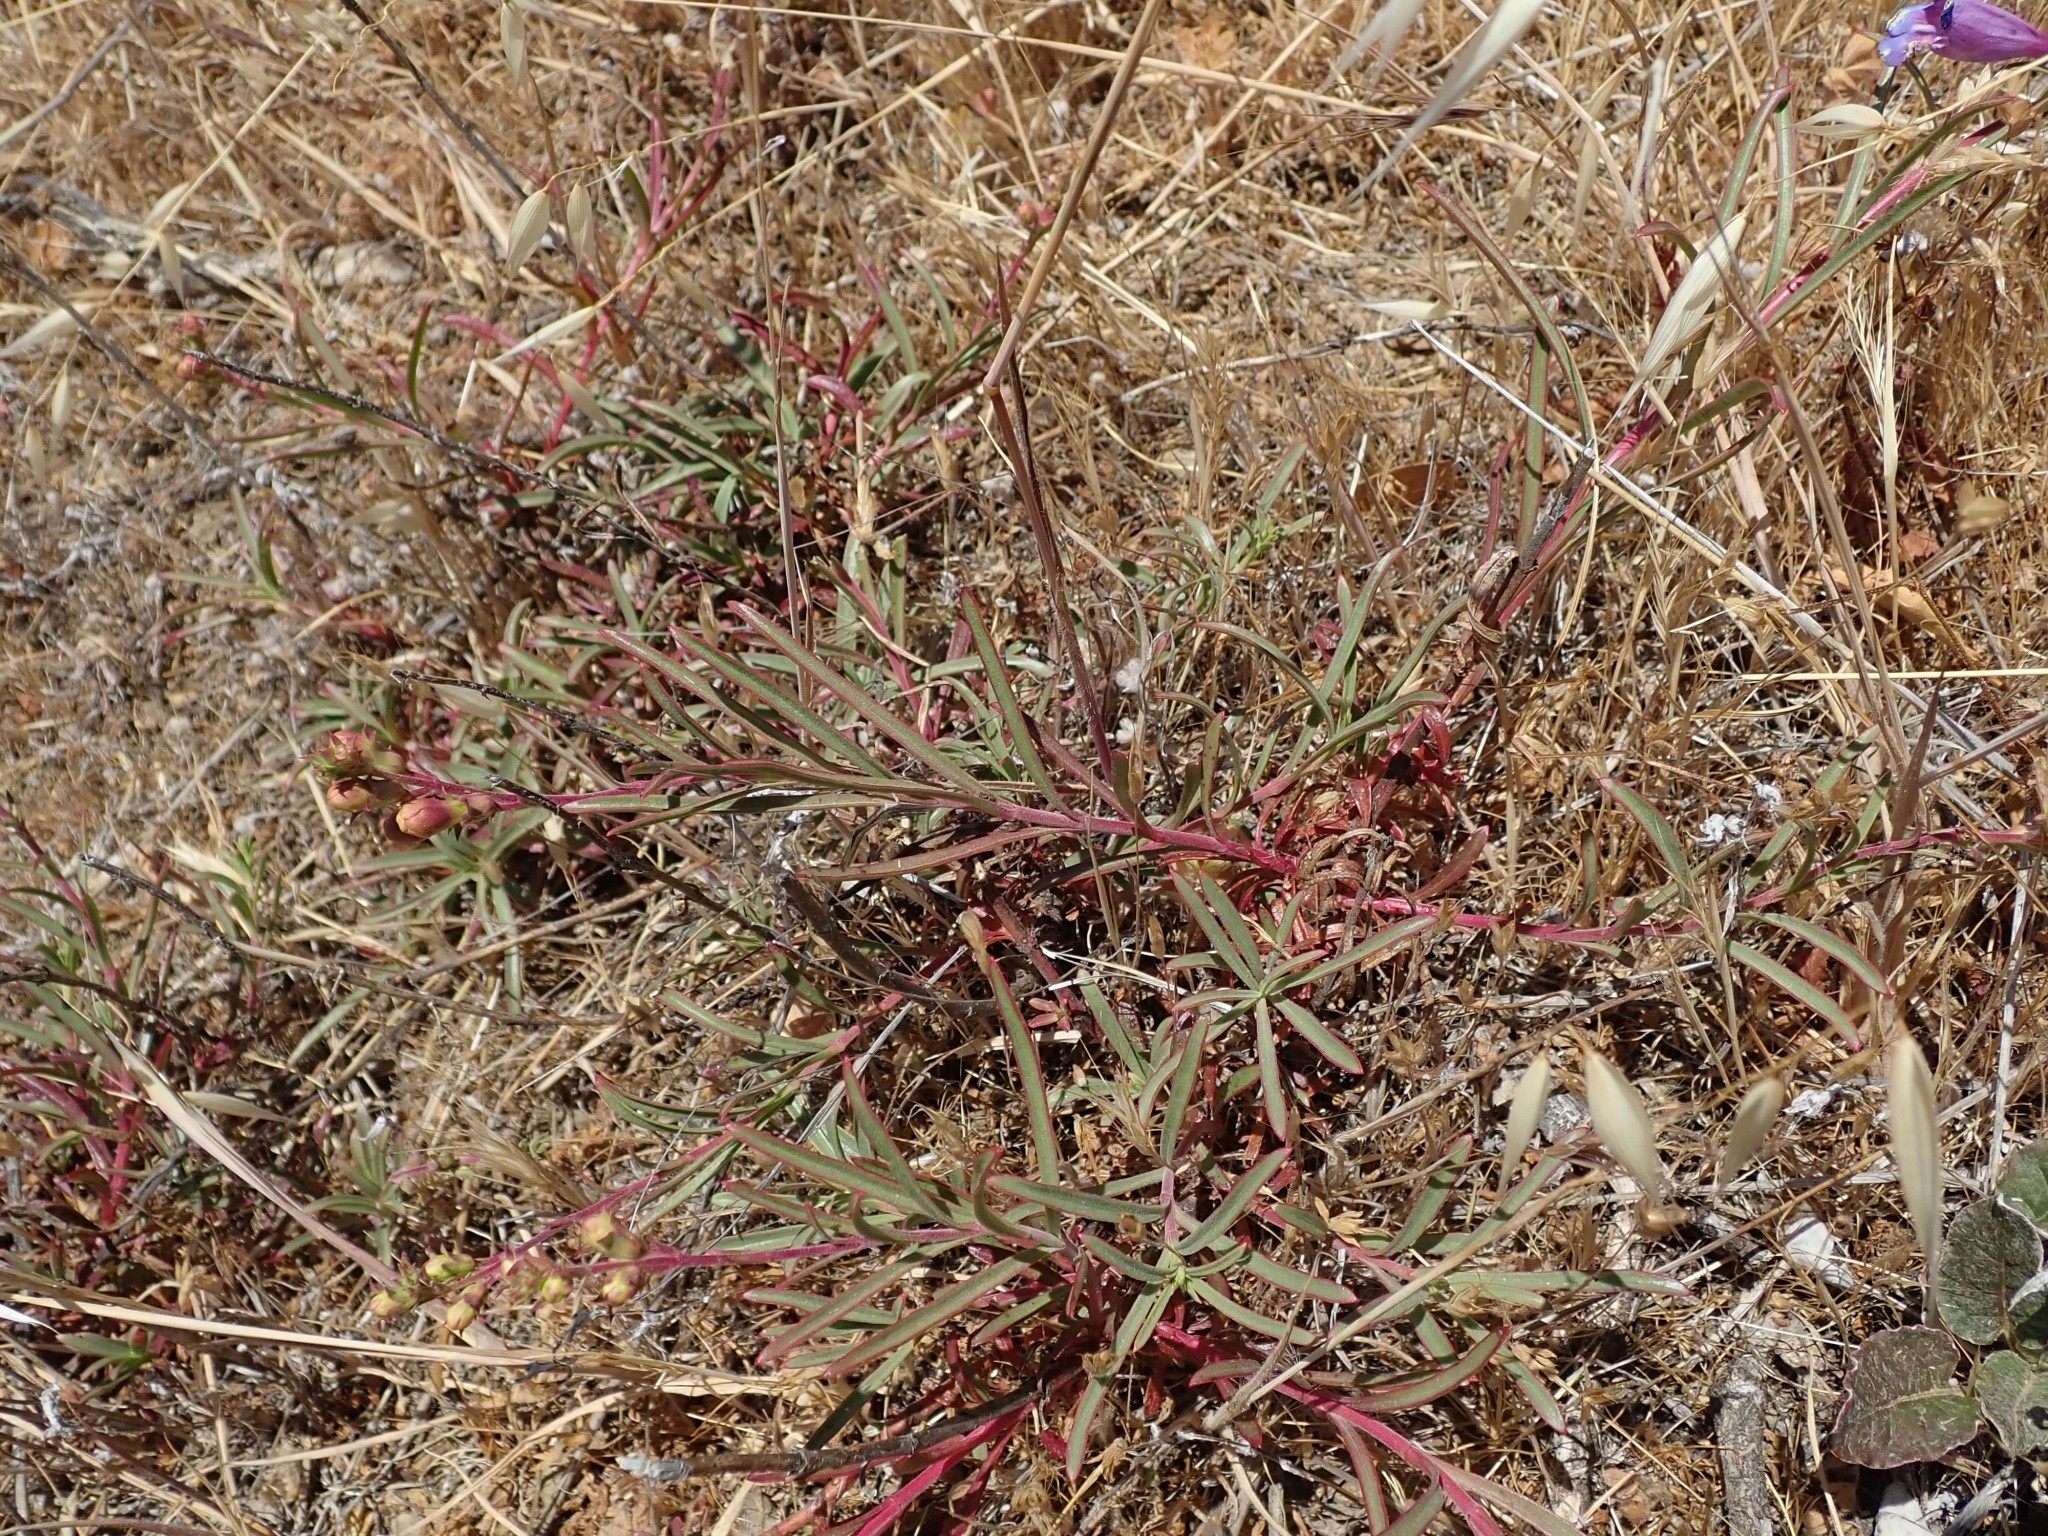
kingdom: Plantae
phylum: Tracheophyta
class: Magnoliopsida
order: Lamiales
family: Plantaginaceae
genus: Penstemon
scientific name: Penstemon heterophyllus
